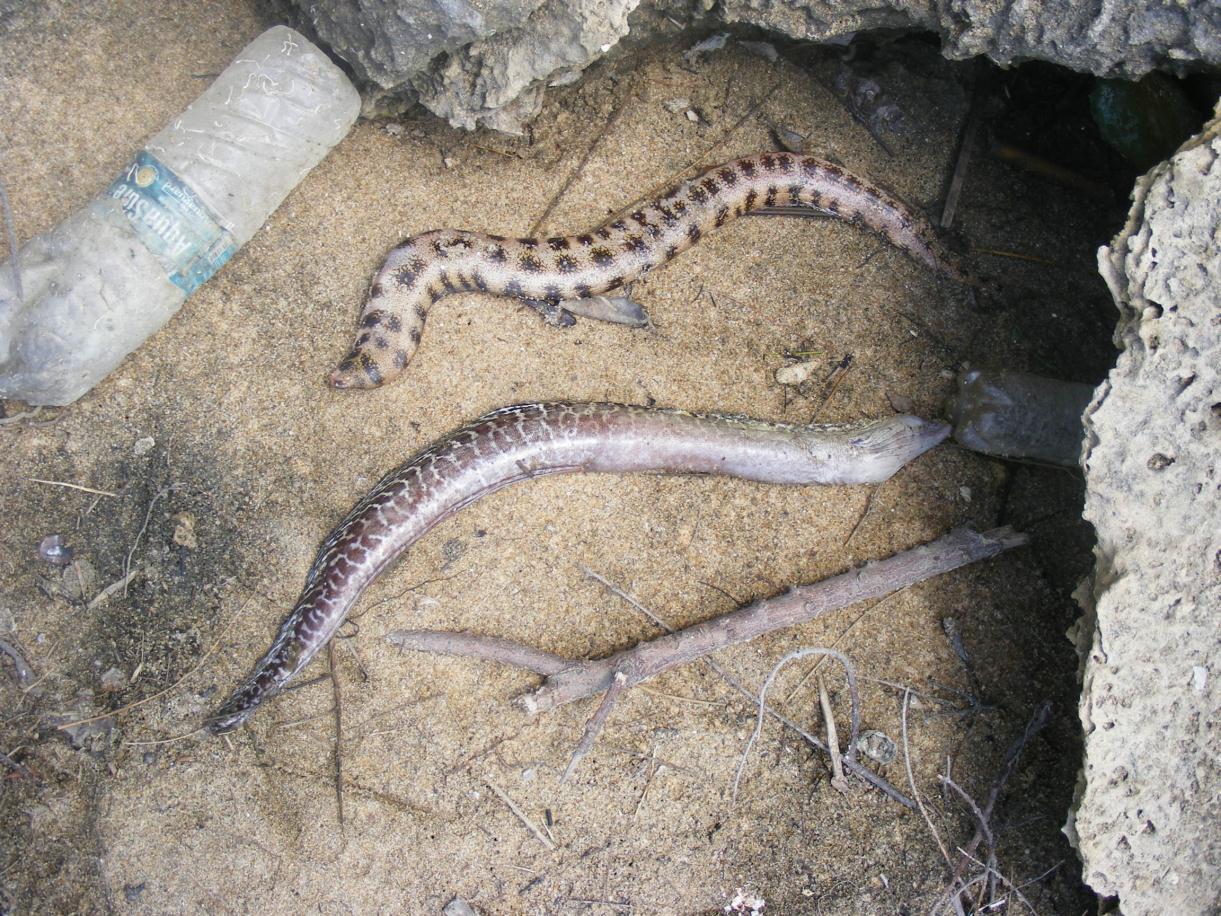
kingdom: Animalia
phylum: Chordata
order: Anguilliformes
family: Muraenidae
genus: Gymnothorax
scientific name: Gymnothorax undulatus
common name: Leopard moray
